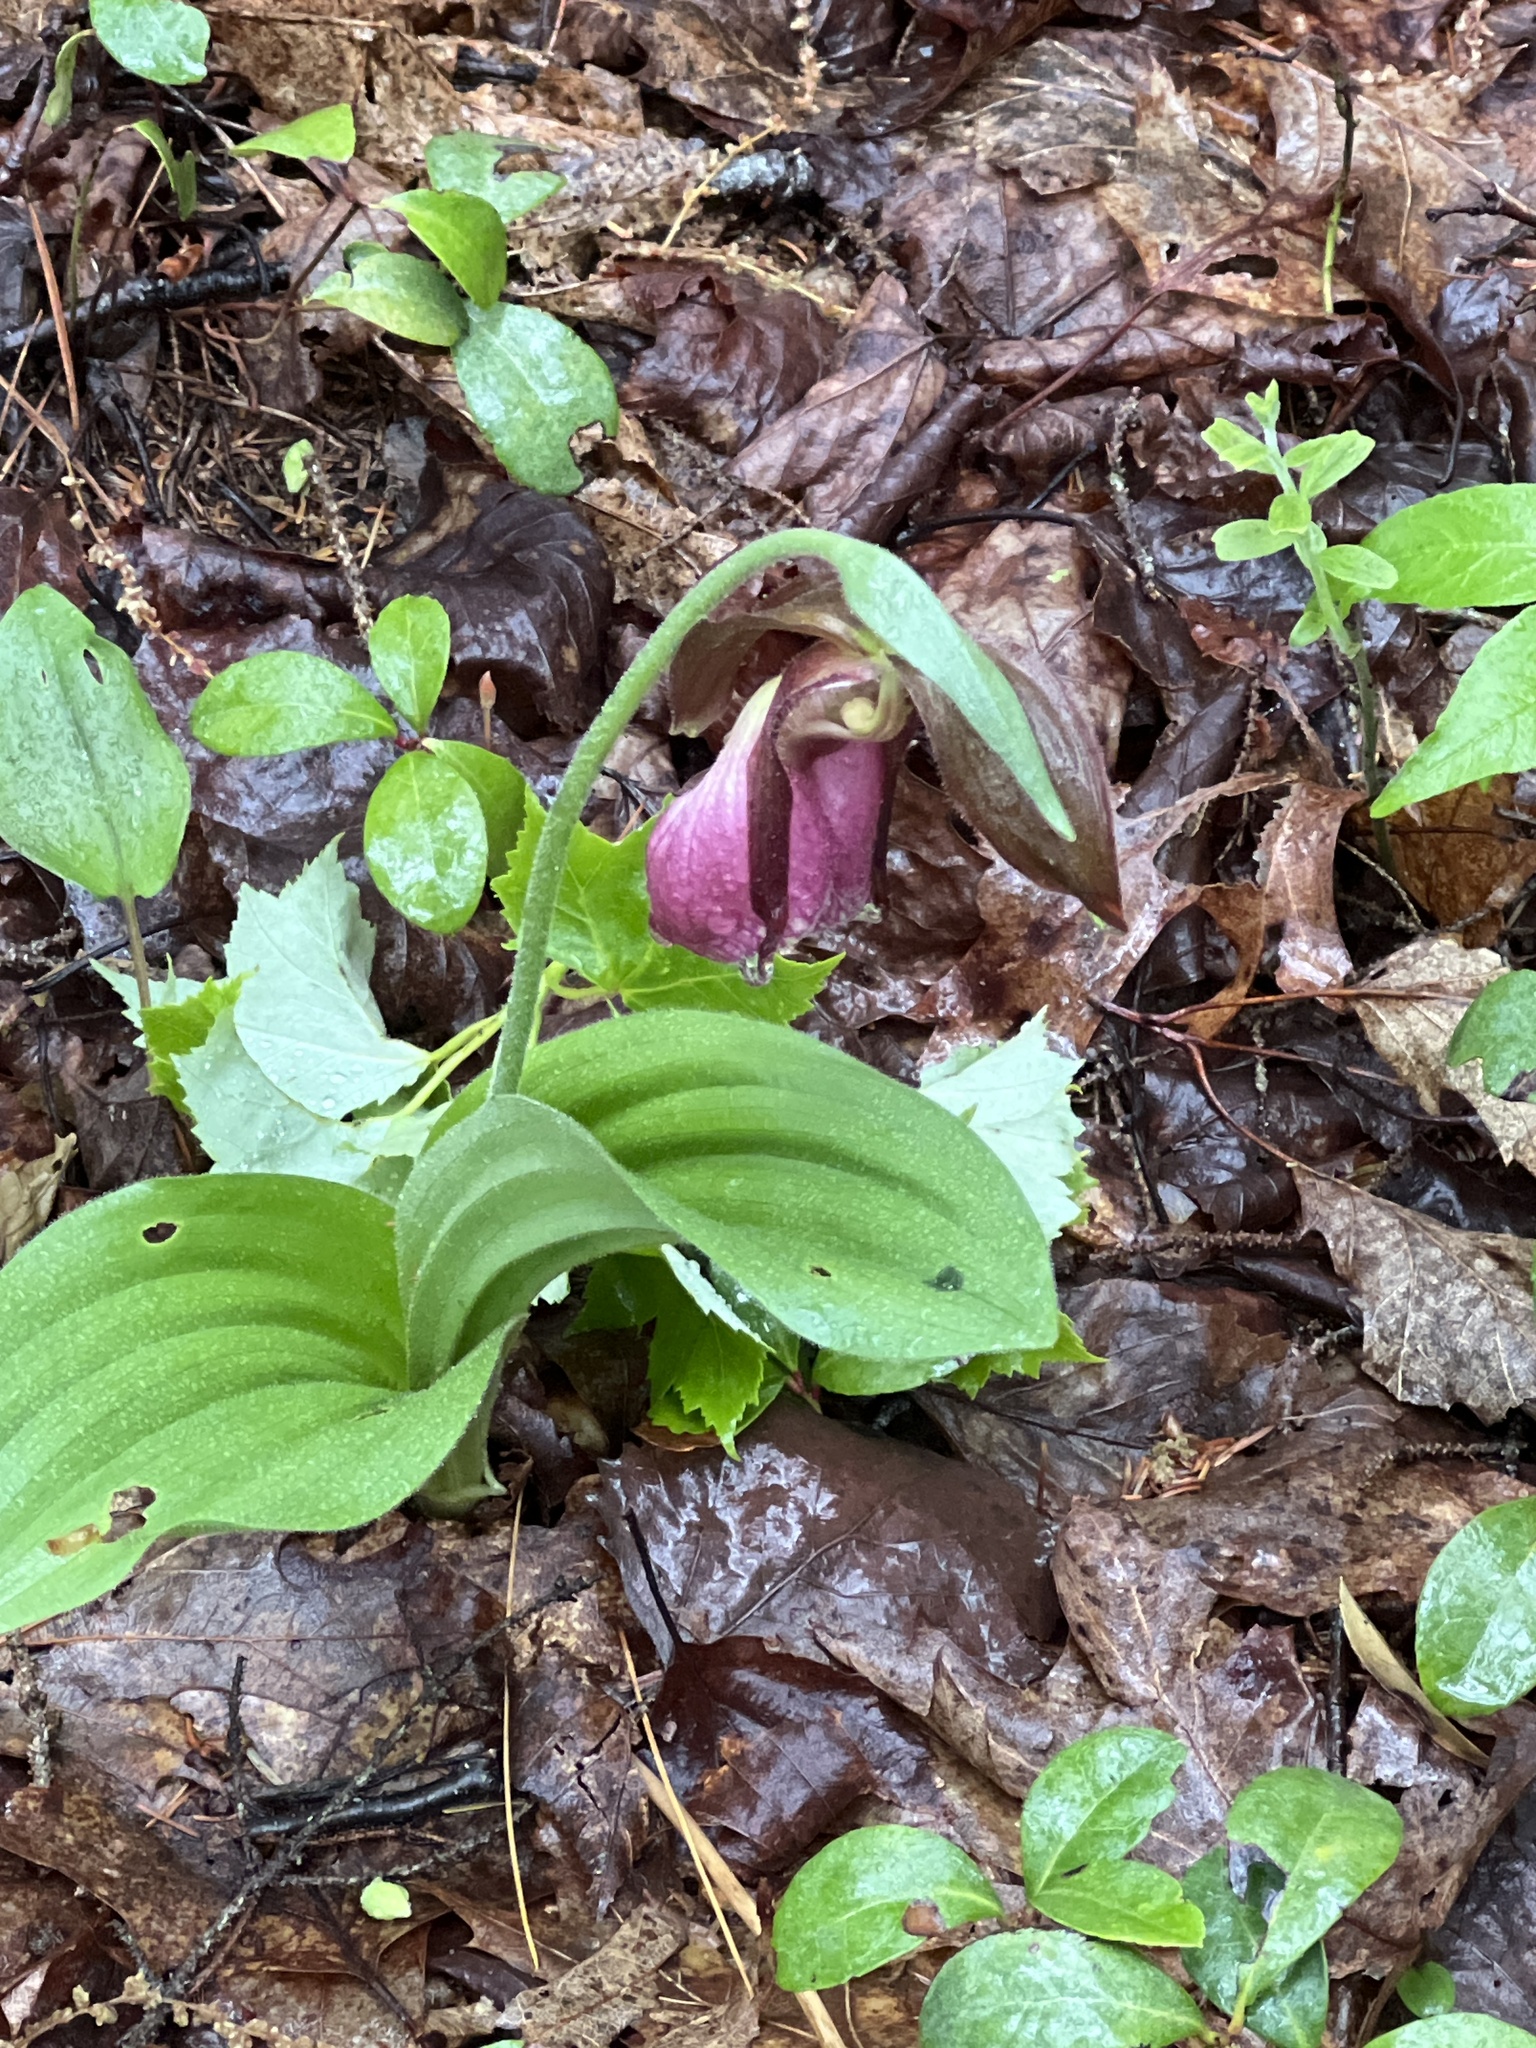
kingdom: Plantae
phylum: Tracheophyta
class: Liliopsida
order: Asparagales
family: Orchidaceae
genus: Cypripedium
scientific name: Cypripedium acaule
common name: Pink lady's-slipper
